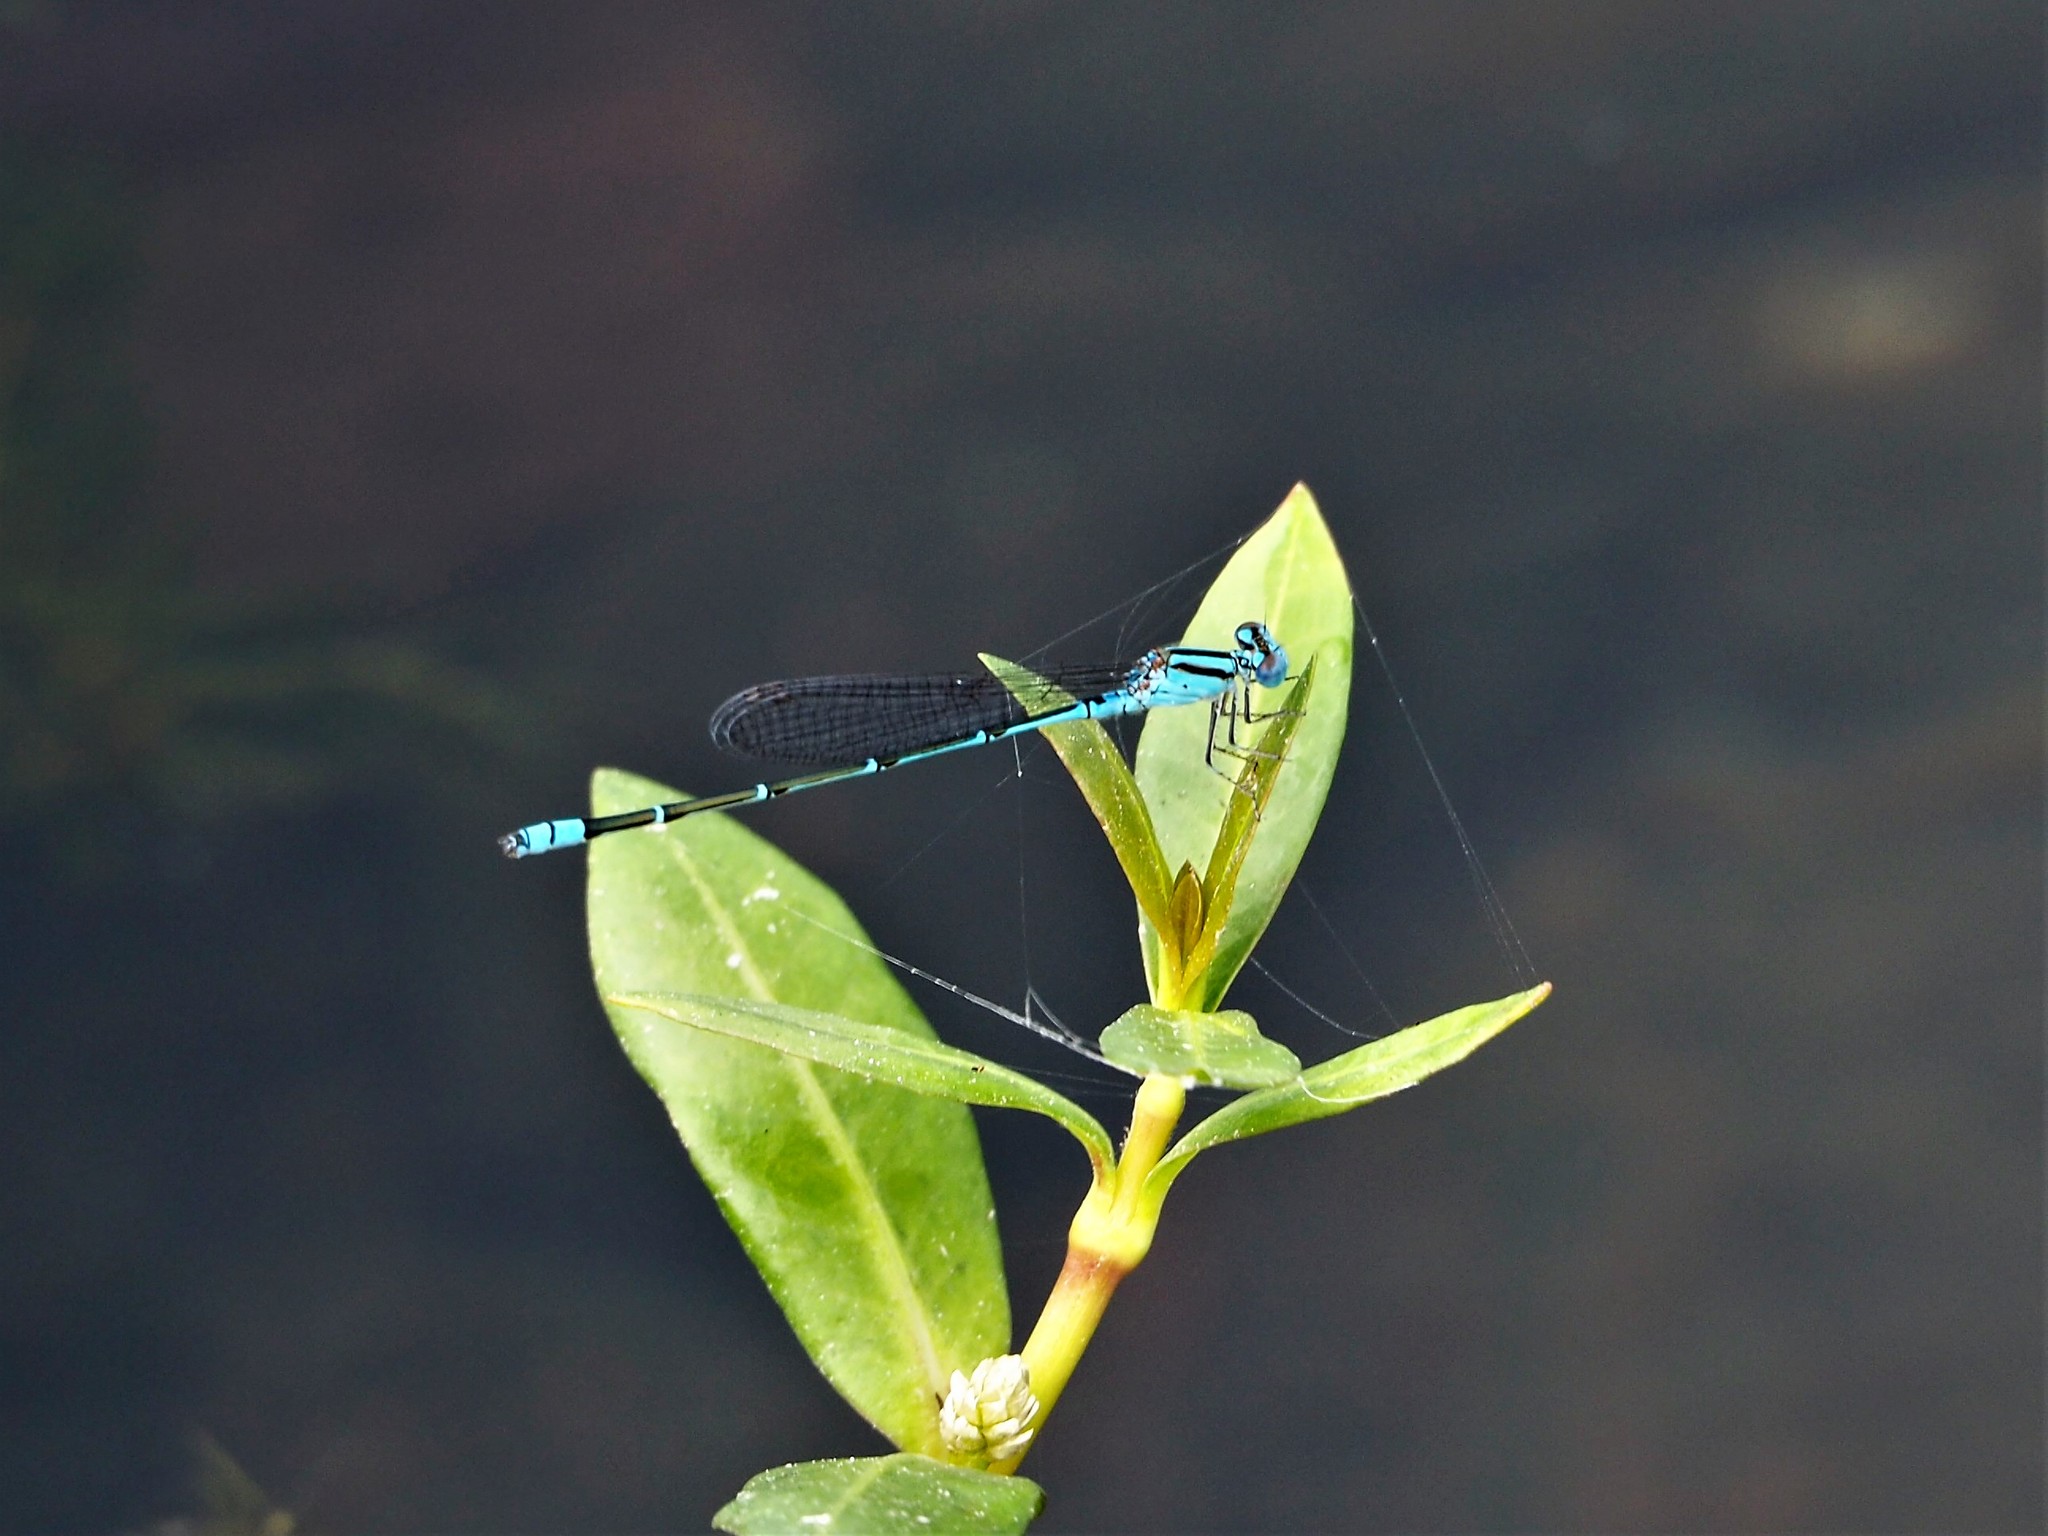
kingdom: Animalia
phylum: Arthropoda
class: Insecta
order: Odonata
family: Coenagrionidae
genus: Pseudagrion
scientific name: Pseudagrion microcephalum
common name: Blue riverdamsel
